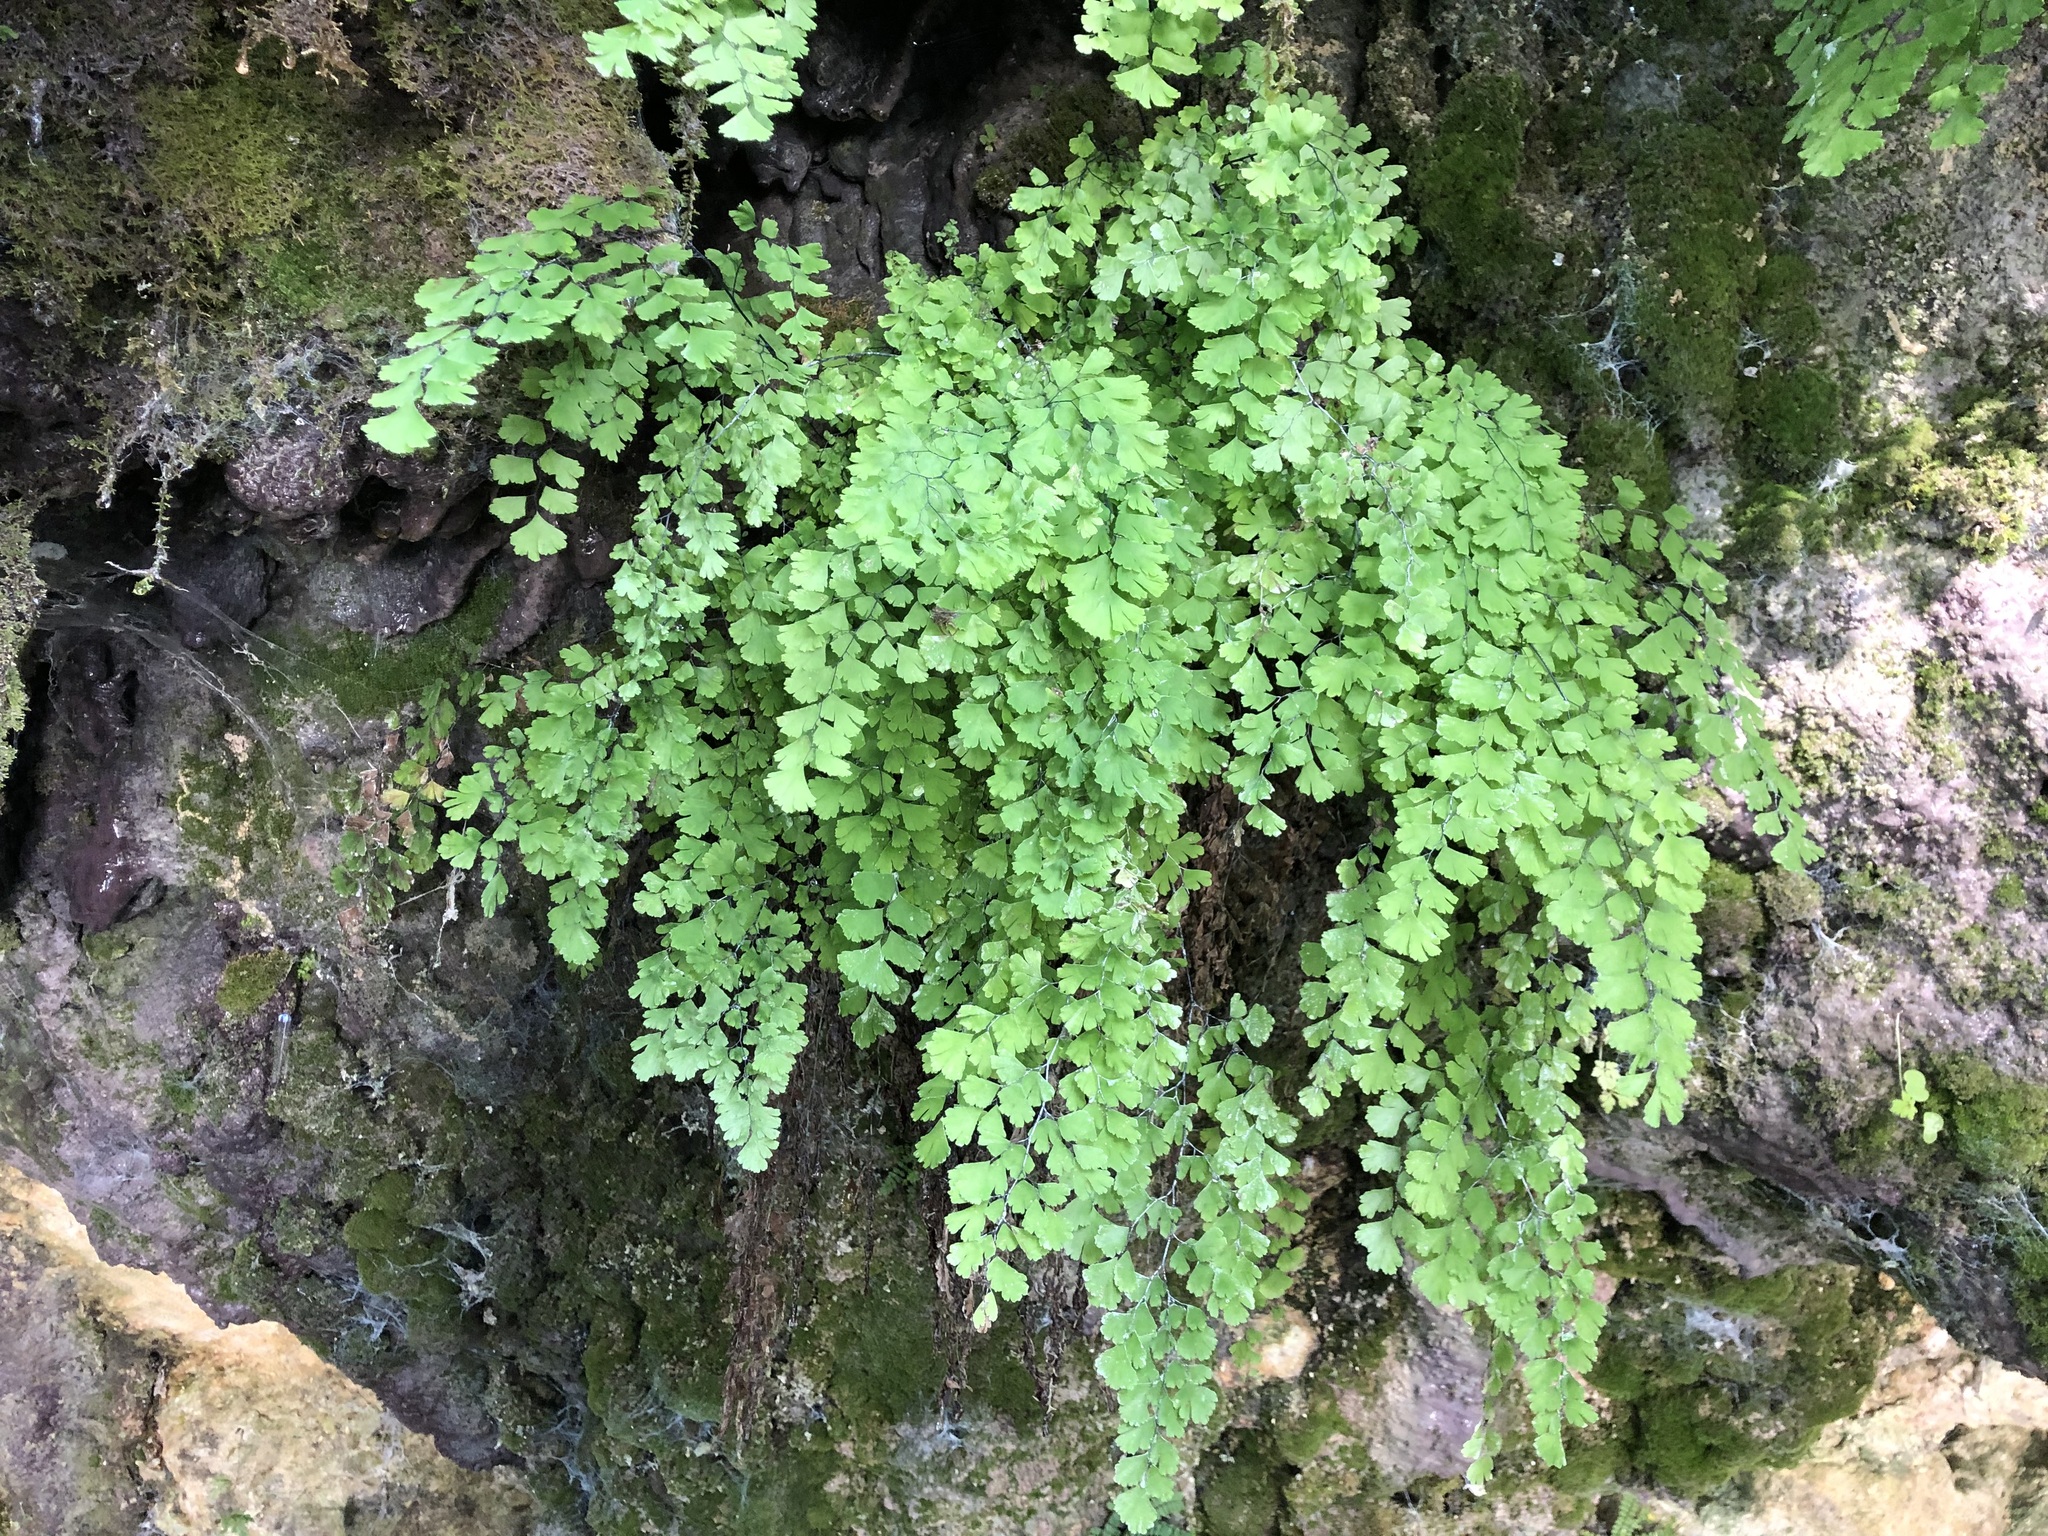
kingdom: Plantae
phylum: Tracheophyta
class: Polypodiopsida
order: Polypodiales
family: Pteridaceae
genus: Adiantum
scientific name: Adiantum capillus-veneris
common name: Maidenhair fern
